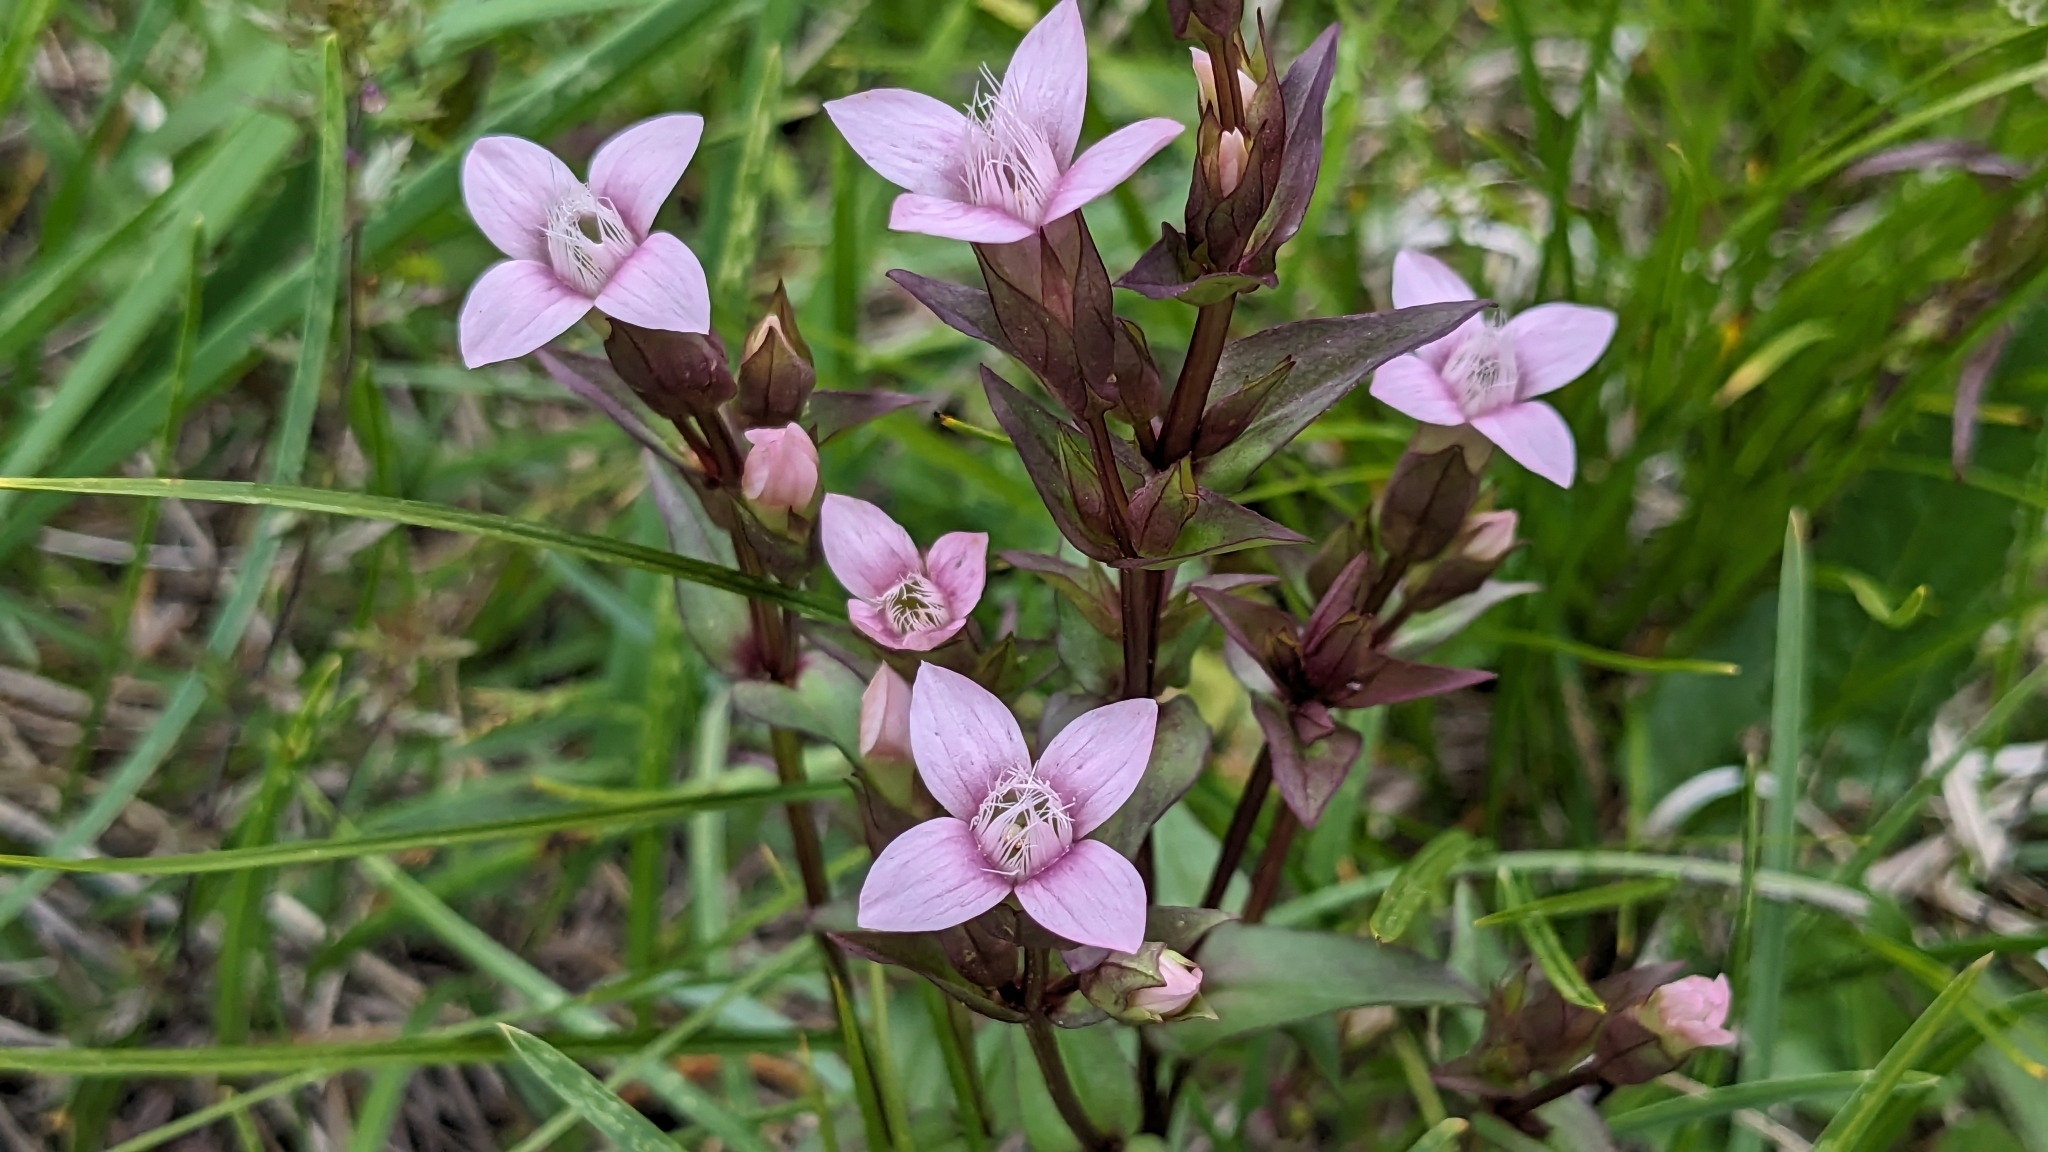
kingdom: Plantae
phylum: Tracheophyta
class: Magnoliopsida
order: Gentianales
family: Gentianaceae
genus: Gentianella
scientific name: Gentianella campestris
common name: Field gentian
